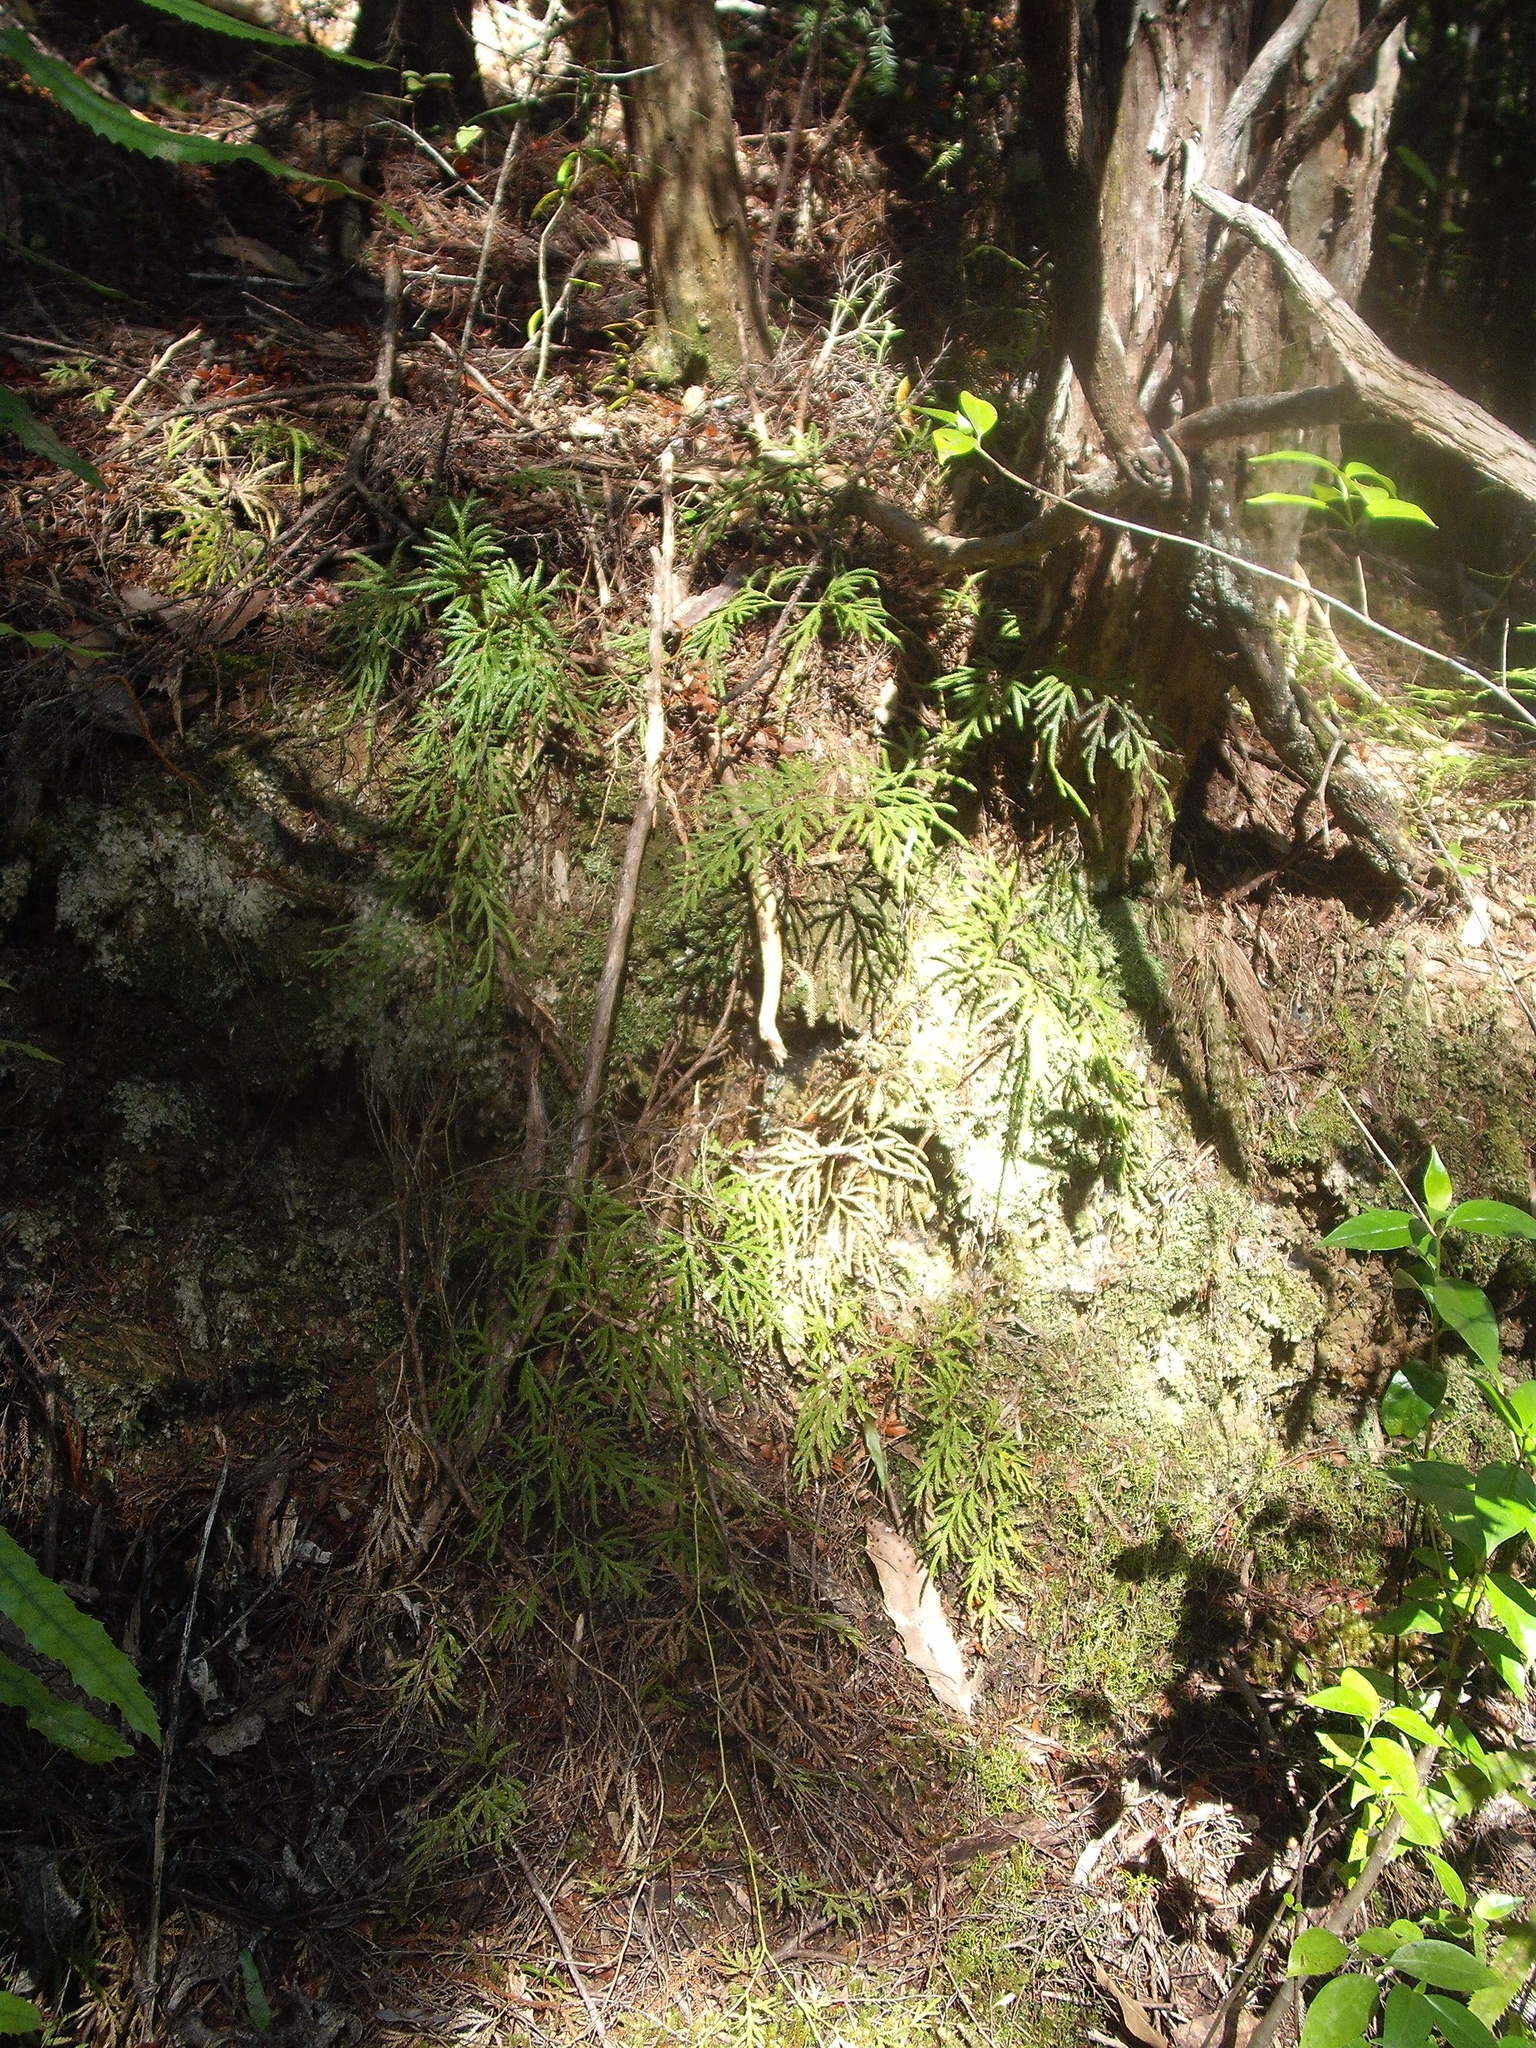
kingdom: Plantae
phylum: Tracheophyta
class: Lycopodiopsida
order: Lycopodiales
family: Lycopodiaceae
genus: Lycopodium
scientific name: Lycopodium volubile
